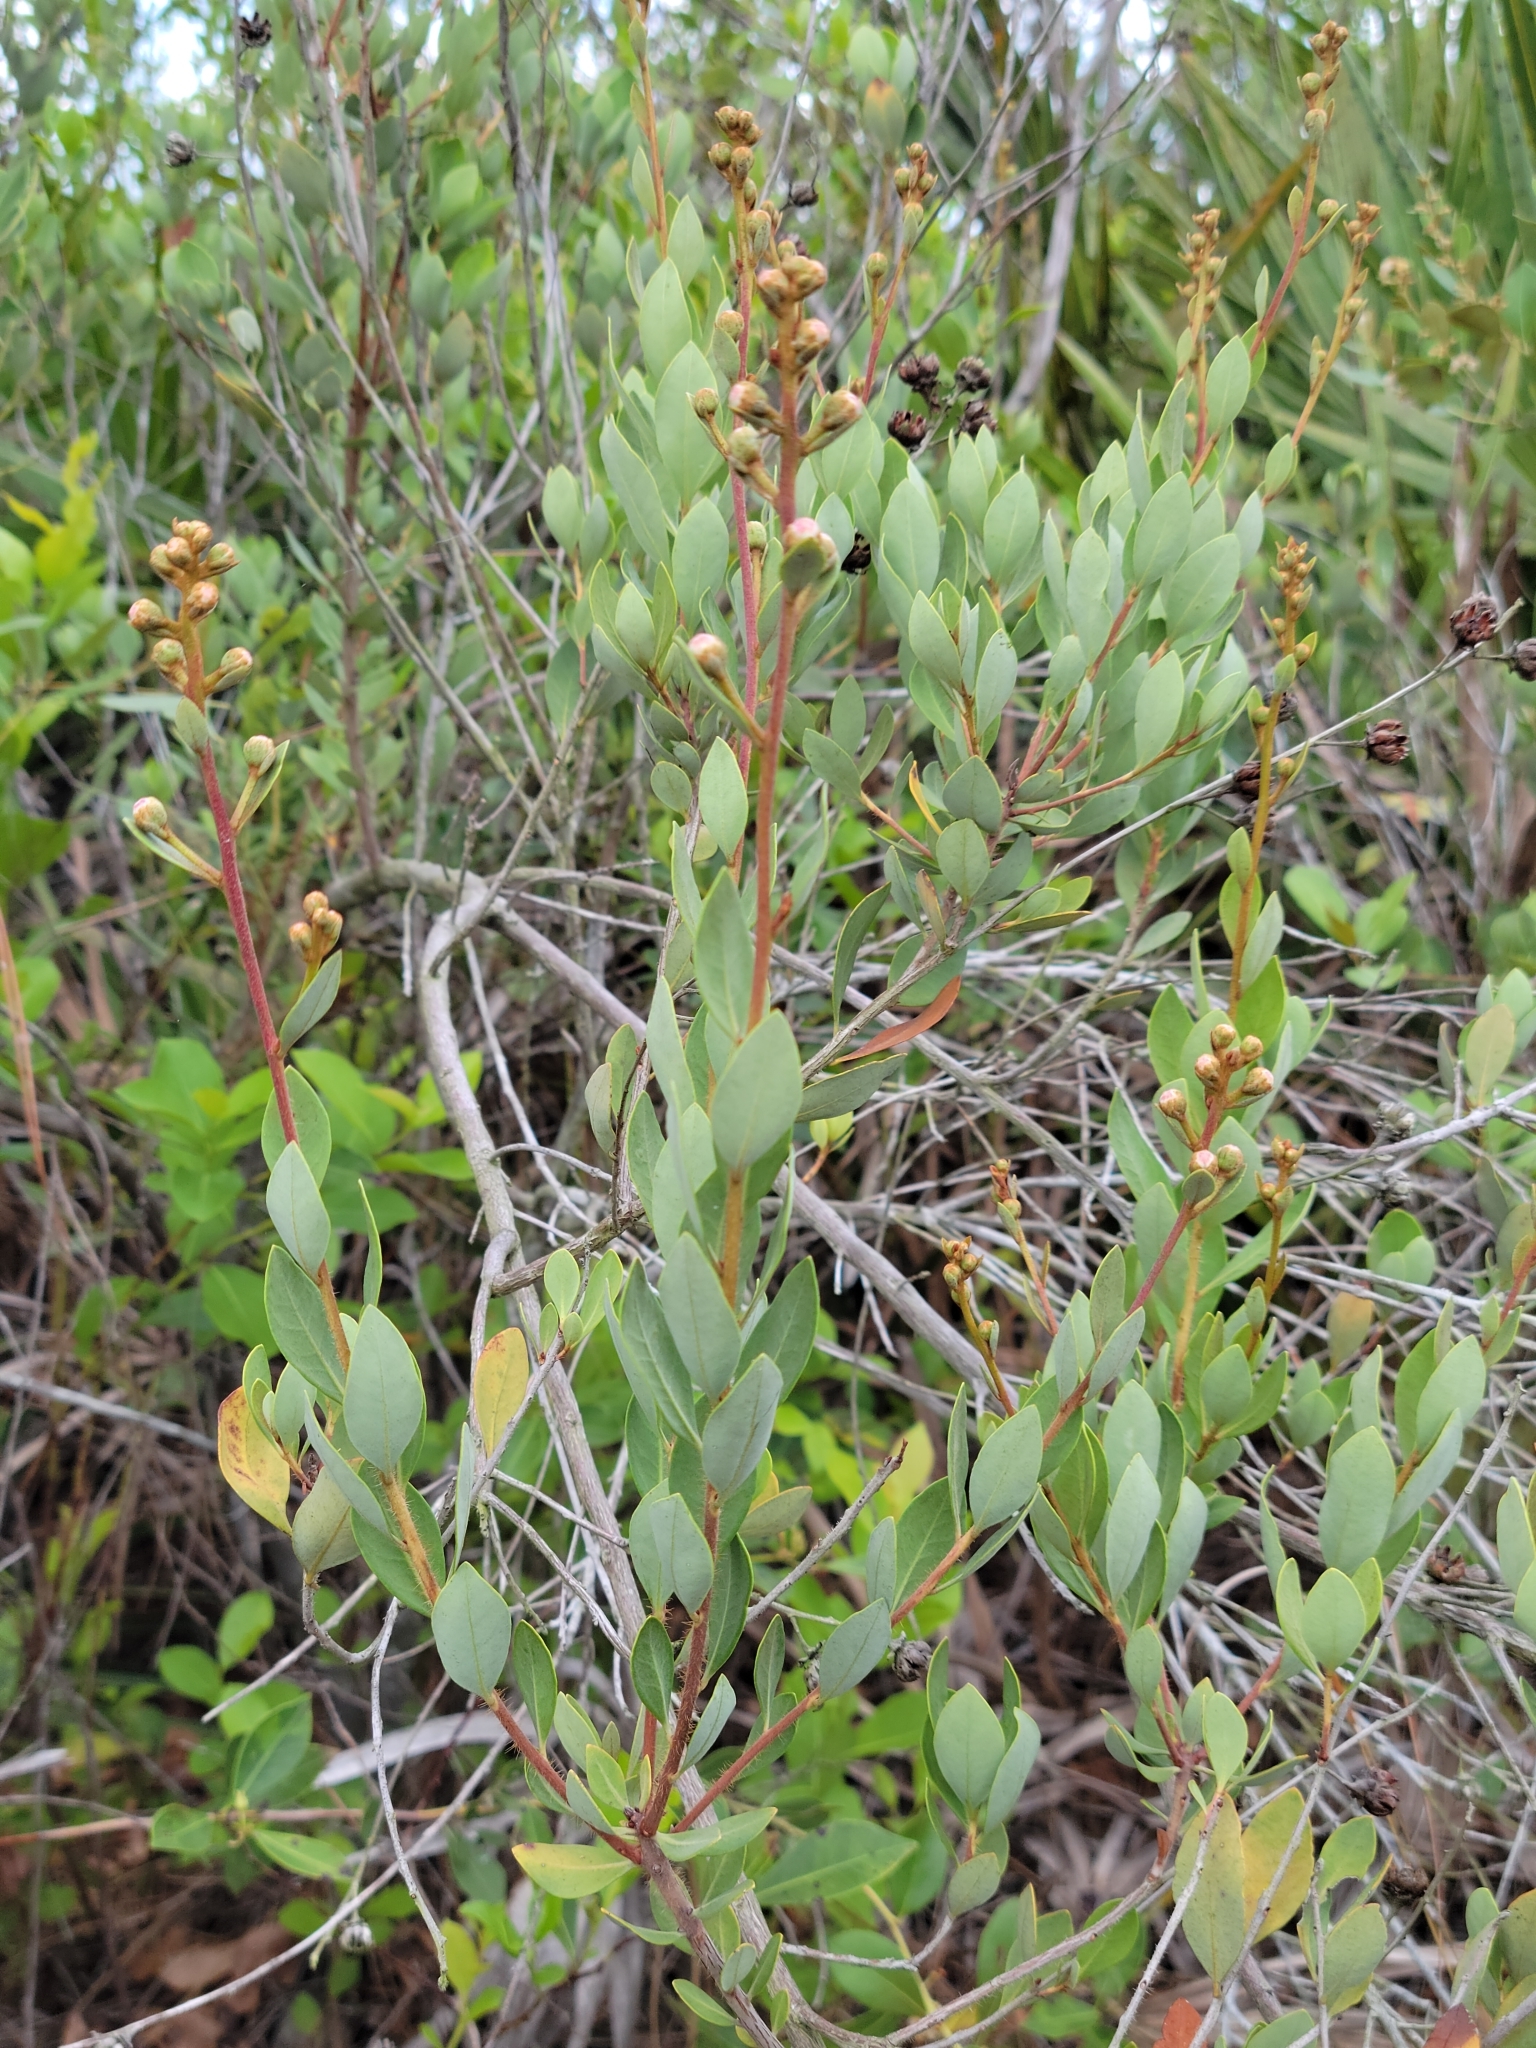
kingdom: Plantae
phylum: Tracheophyta
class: Magnoliopsida
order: Ericales
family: Ericaceae
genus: Bejaria
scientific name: Bejaria racemosa
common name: Tarflower
